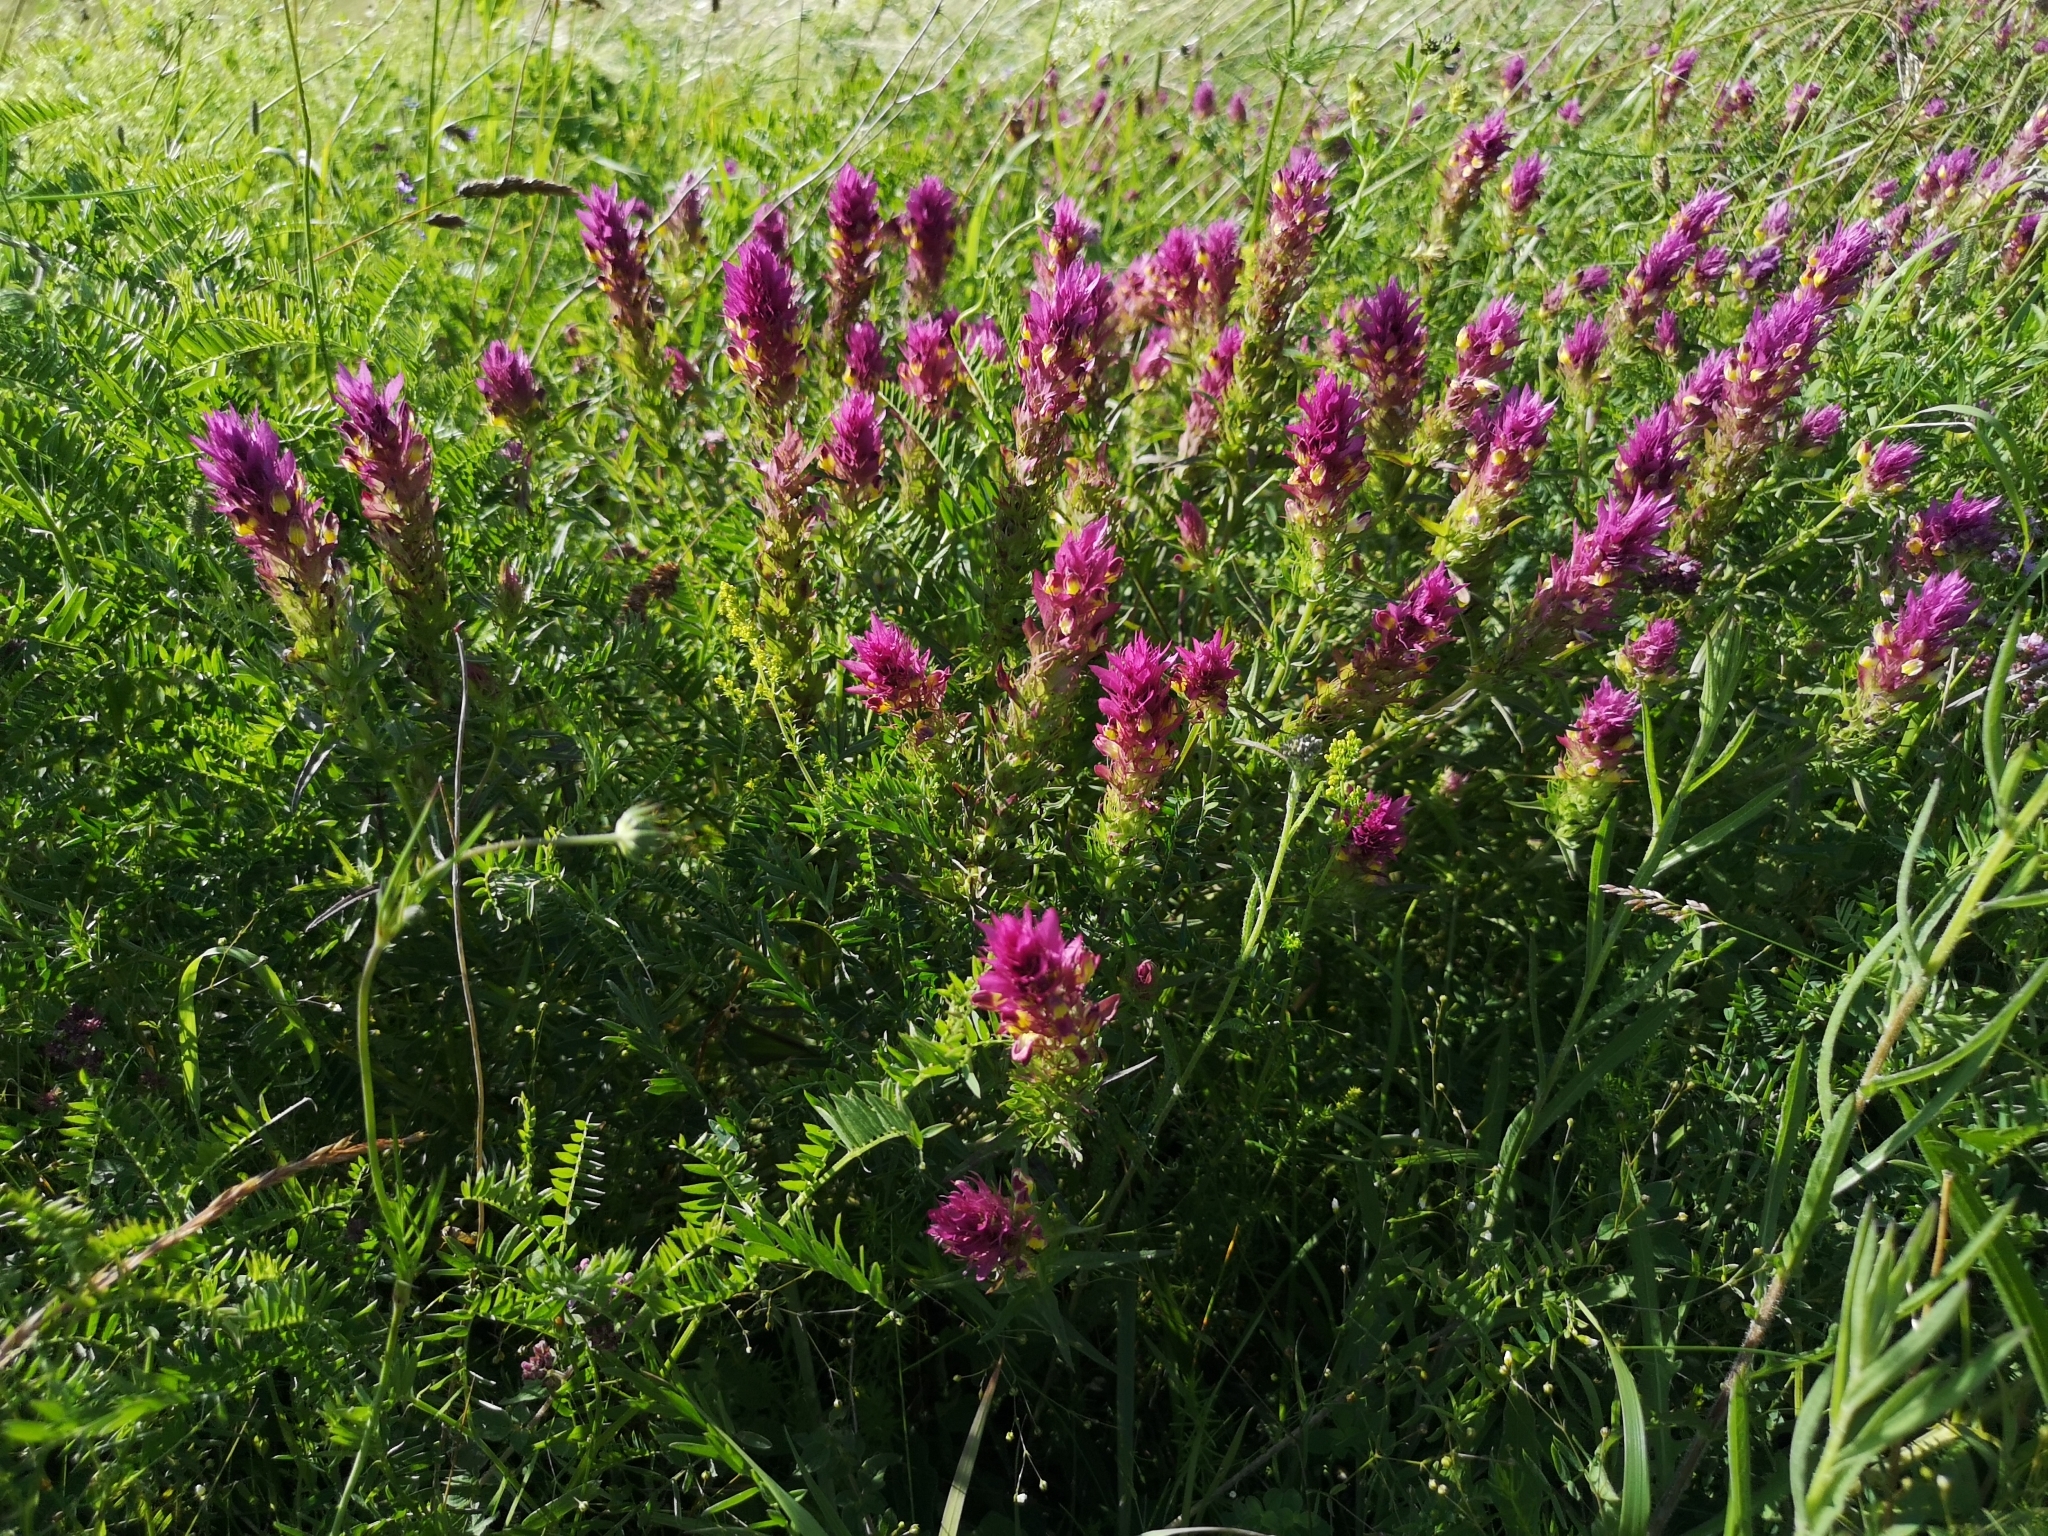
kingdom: Plantae
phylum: Tracheophyta
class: Magnoliopsida
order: Lamiales
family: Orobanchaceae
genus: Melampyrum
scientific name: Melampyrum arvense
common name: Field cow-wheat
